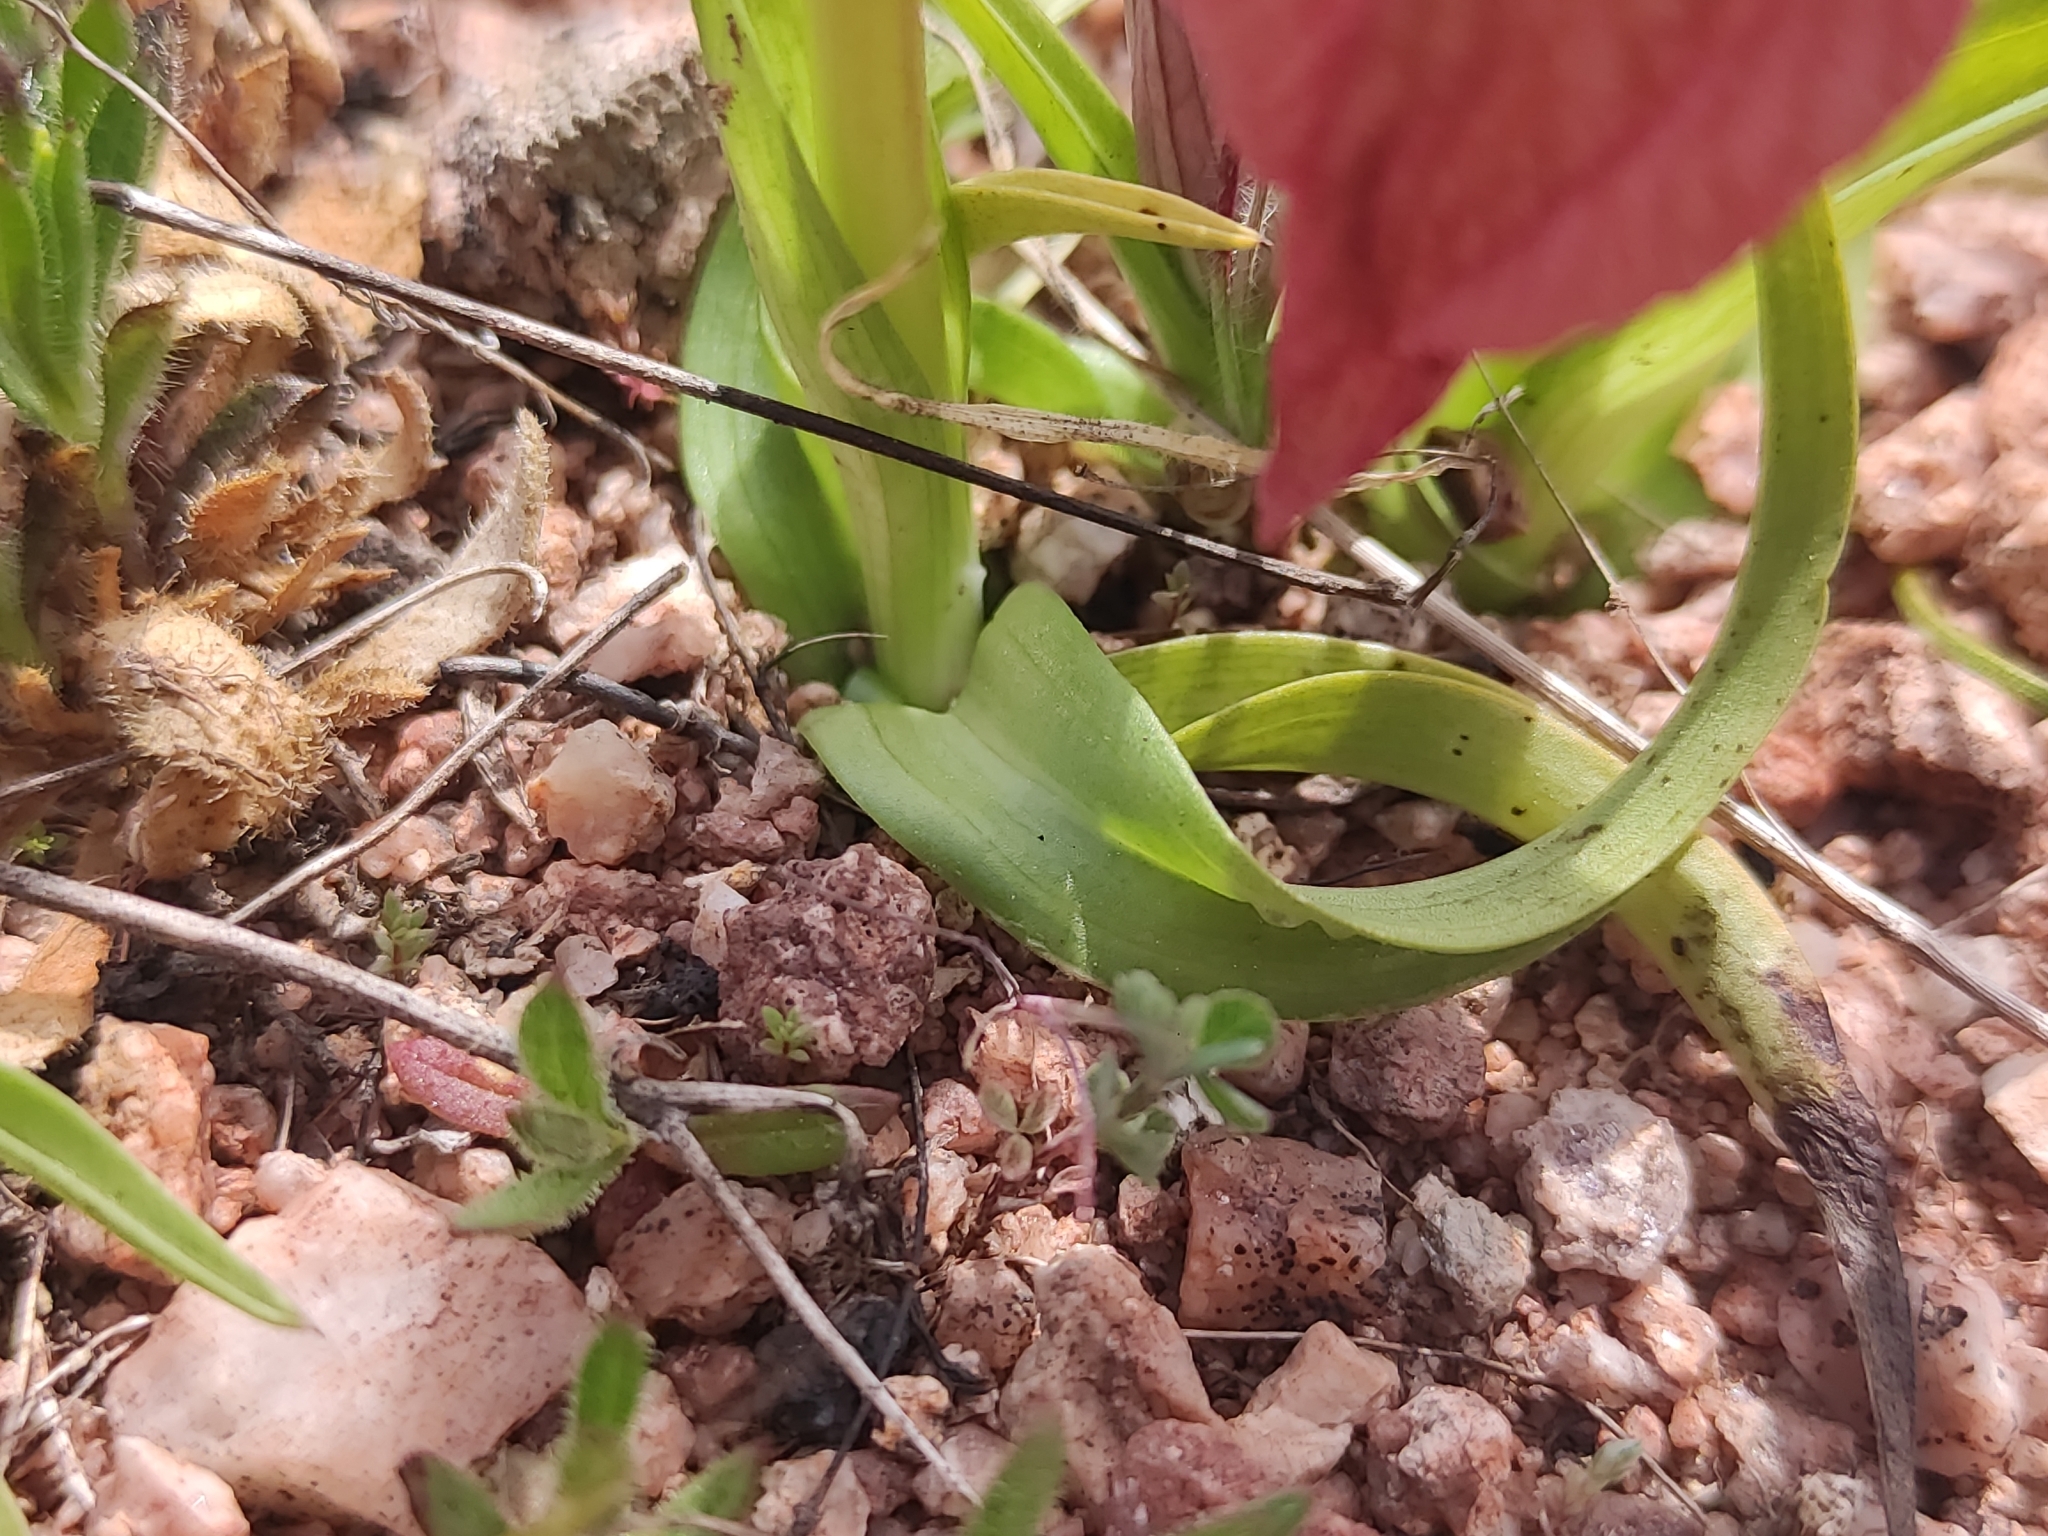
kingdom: Plantae
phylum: Tracheophyta
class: Liliopsida
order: Asparagales
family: Orchidaceae
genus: Serapias
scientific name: Serapias neglecta
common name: Neglected serapias
